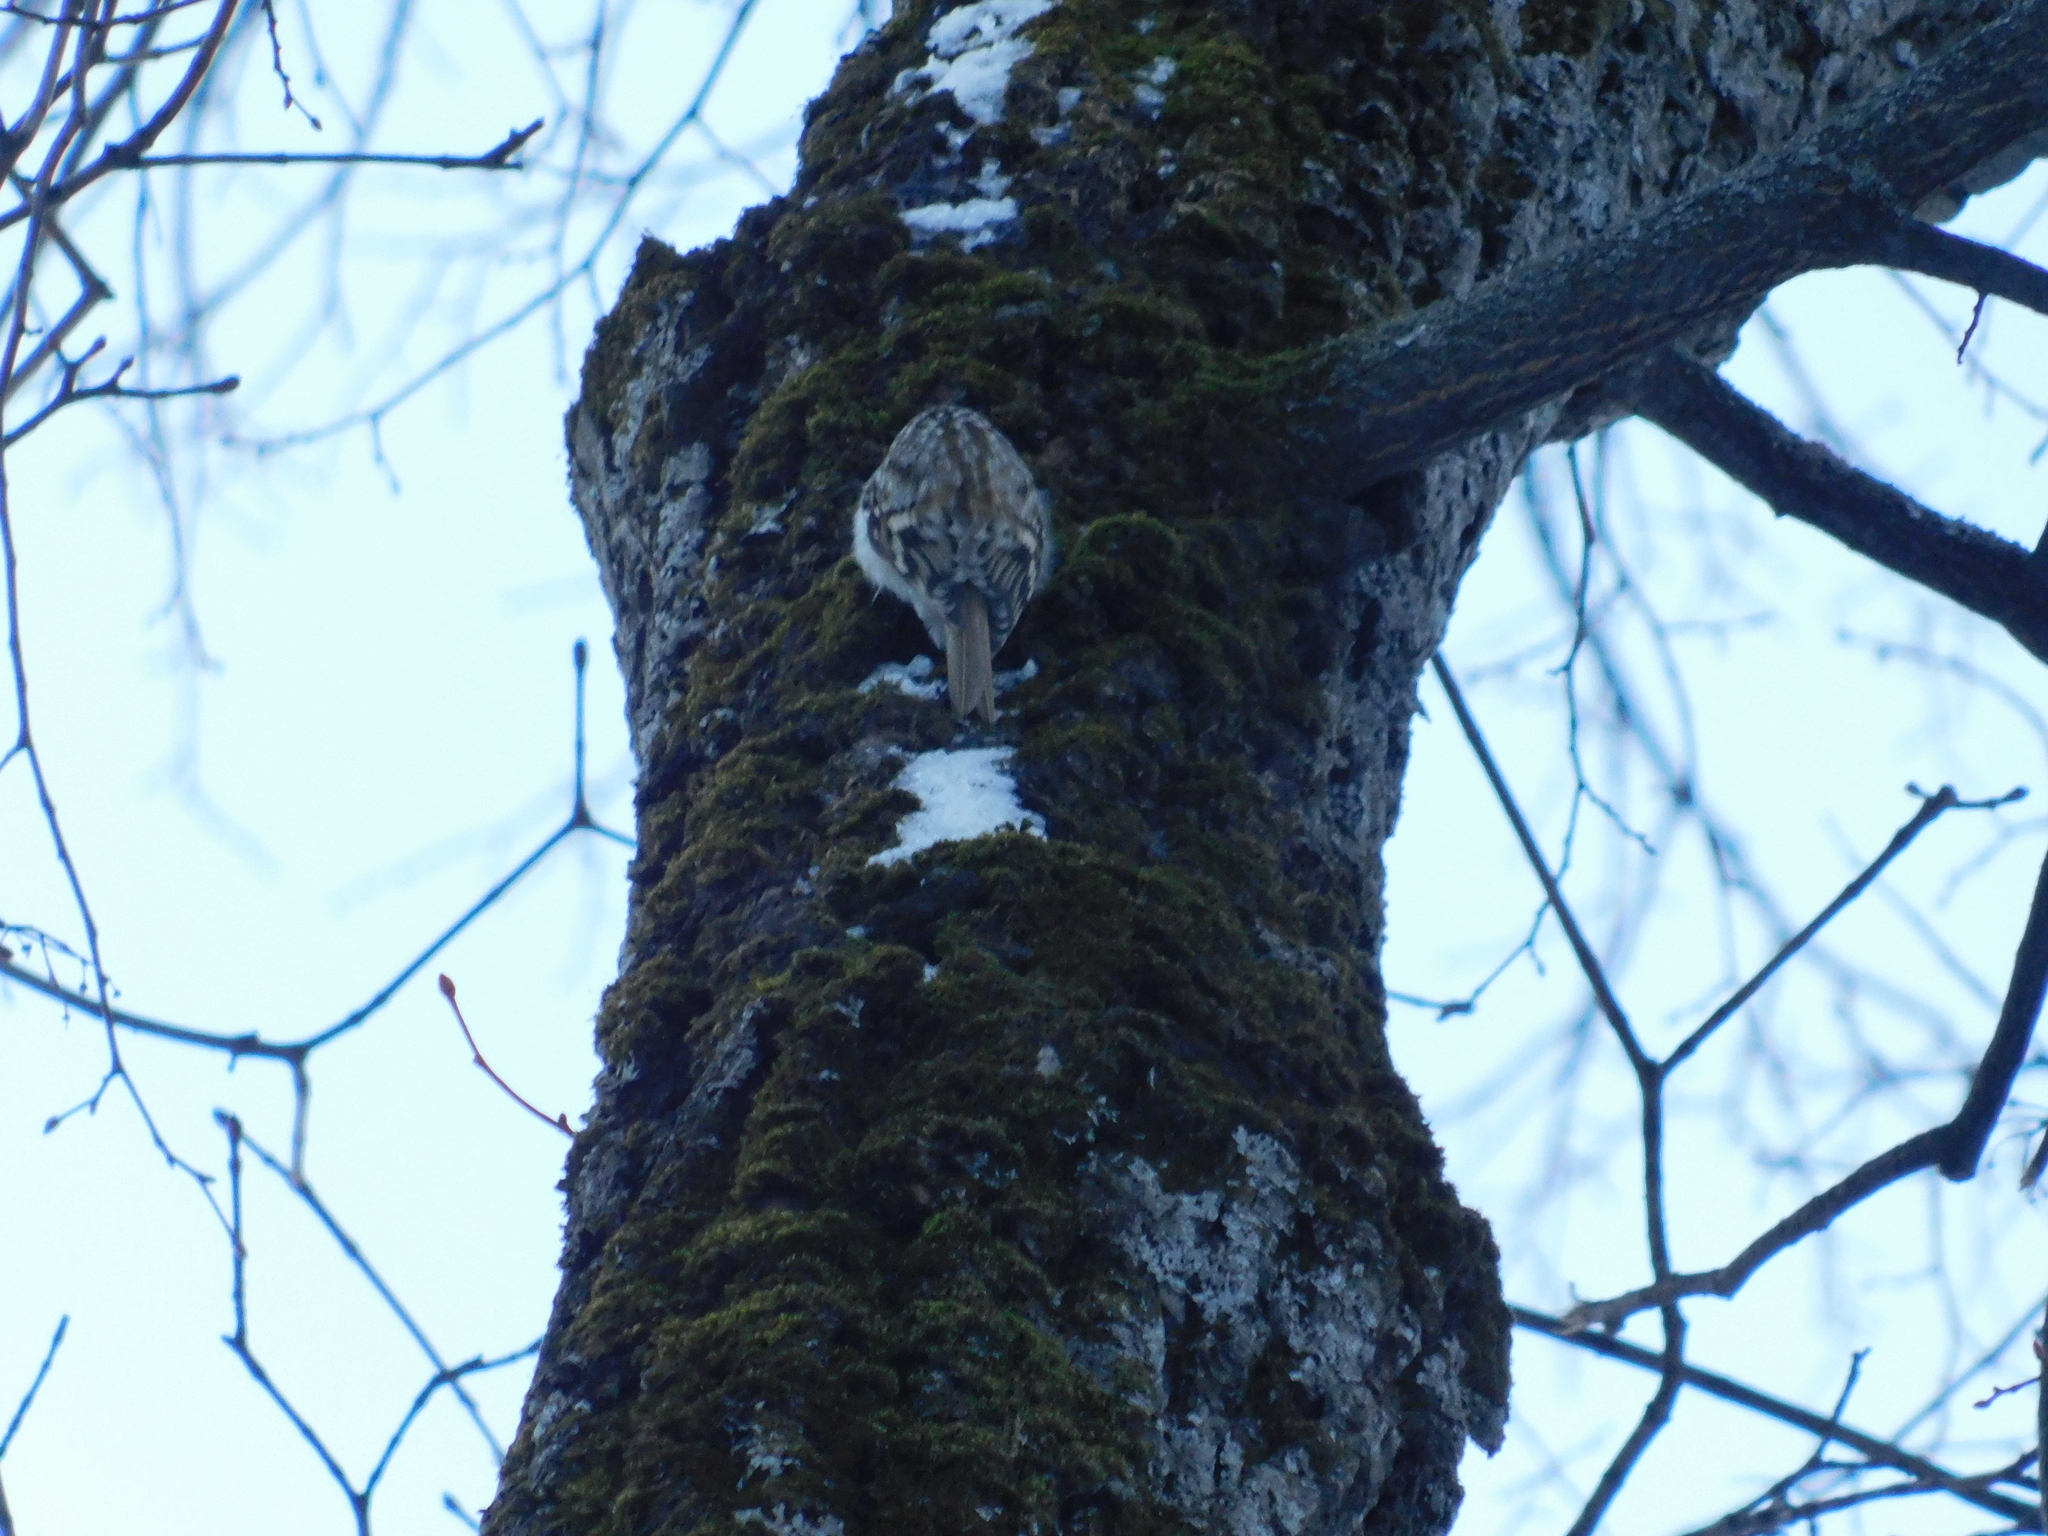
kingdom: Animalia
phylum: Chordata
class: Aves
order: Passeriformes
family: Certhiidae
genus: Certhia
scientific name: Certhia familiaris
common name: Eurasian treecreeper
